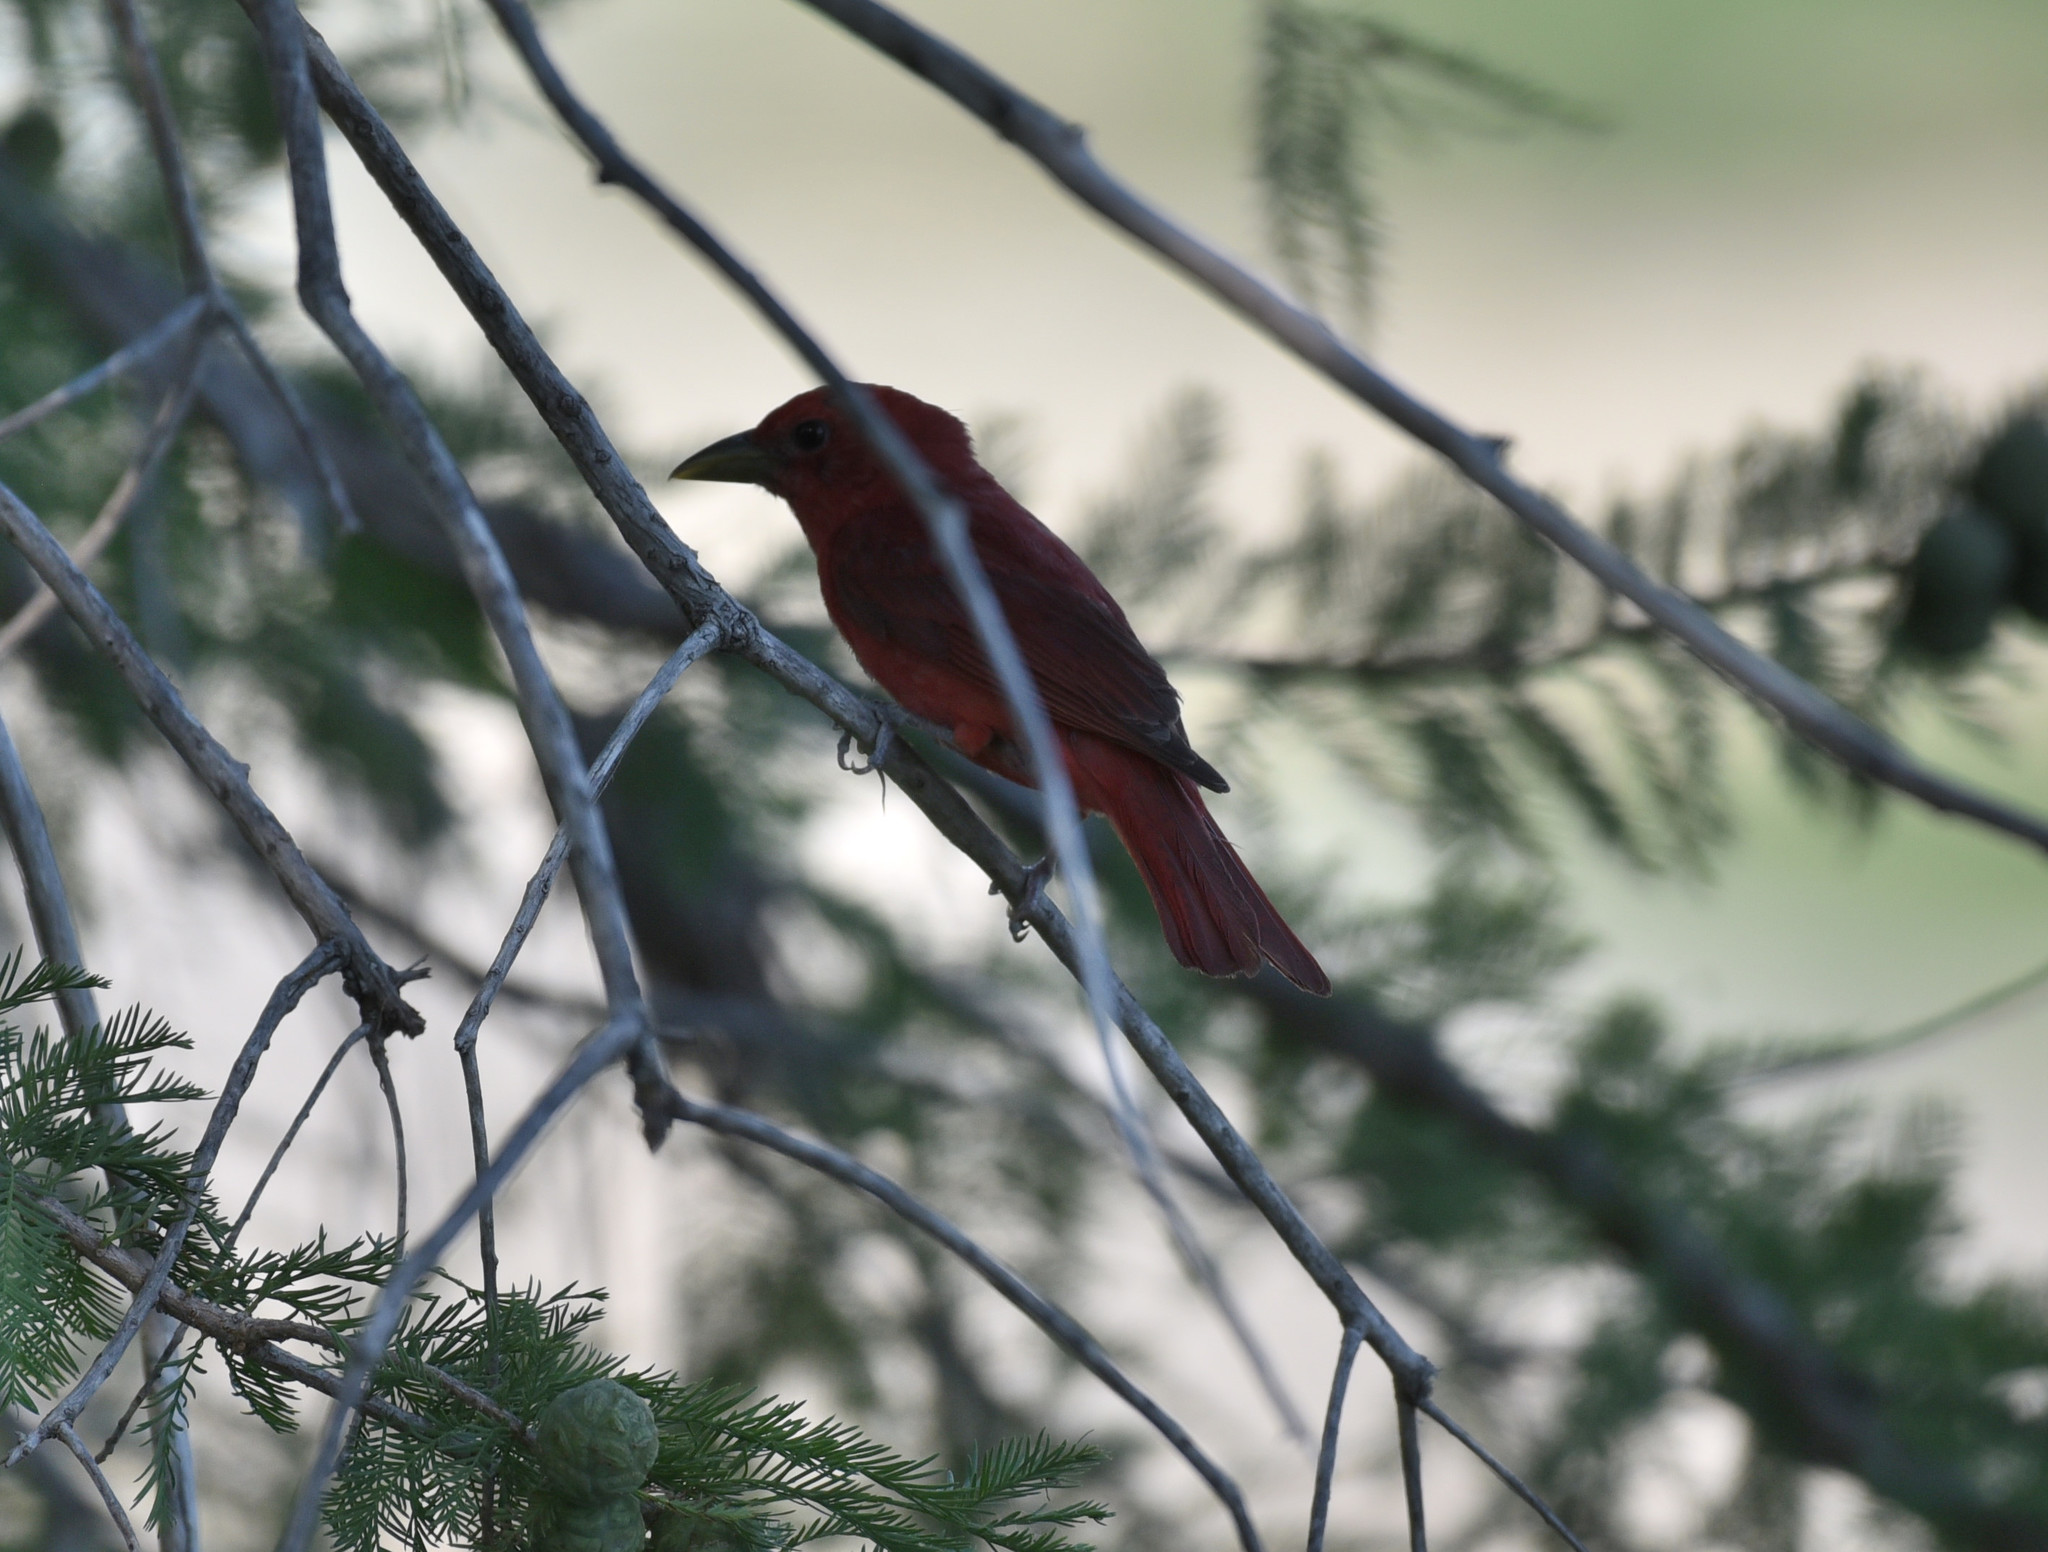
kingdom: Animalia
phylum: Chordata
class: Aves
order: Passeriformes
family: Cardinalidae
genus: Piranga
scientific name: Piranga rubra
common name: Summer tanager
